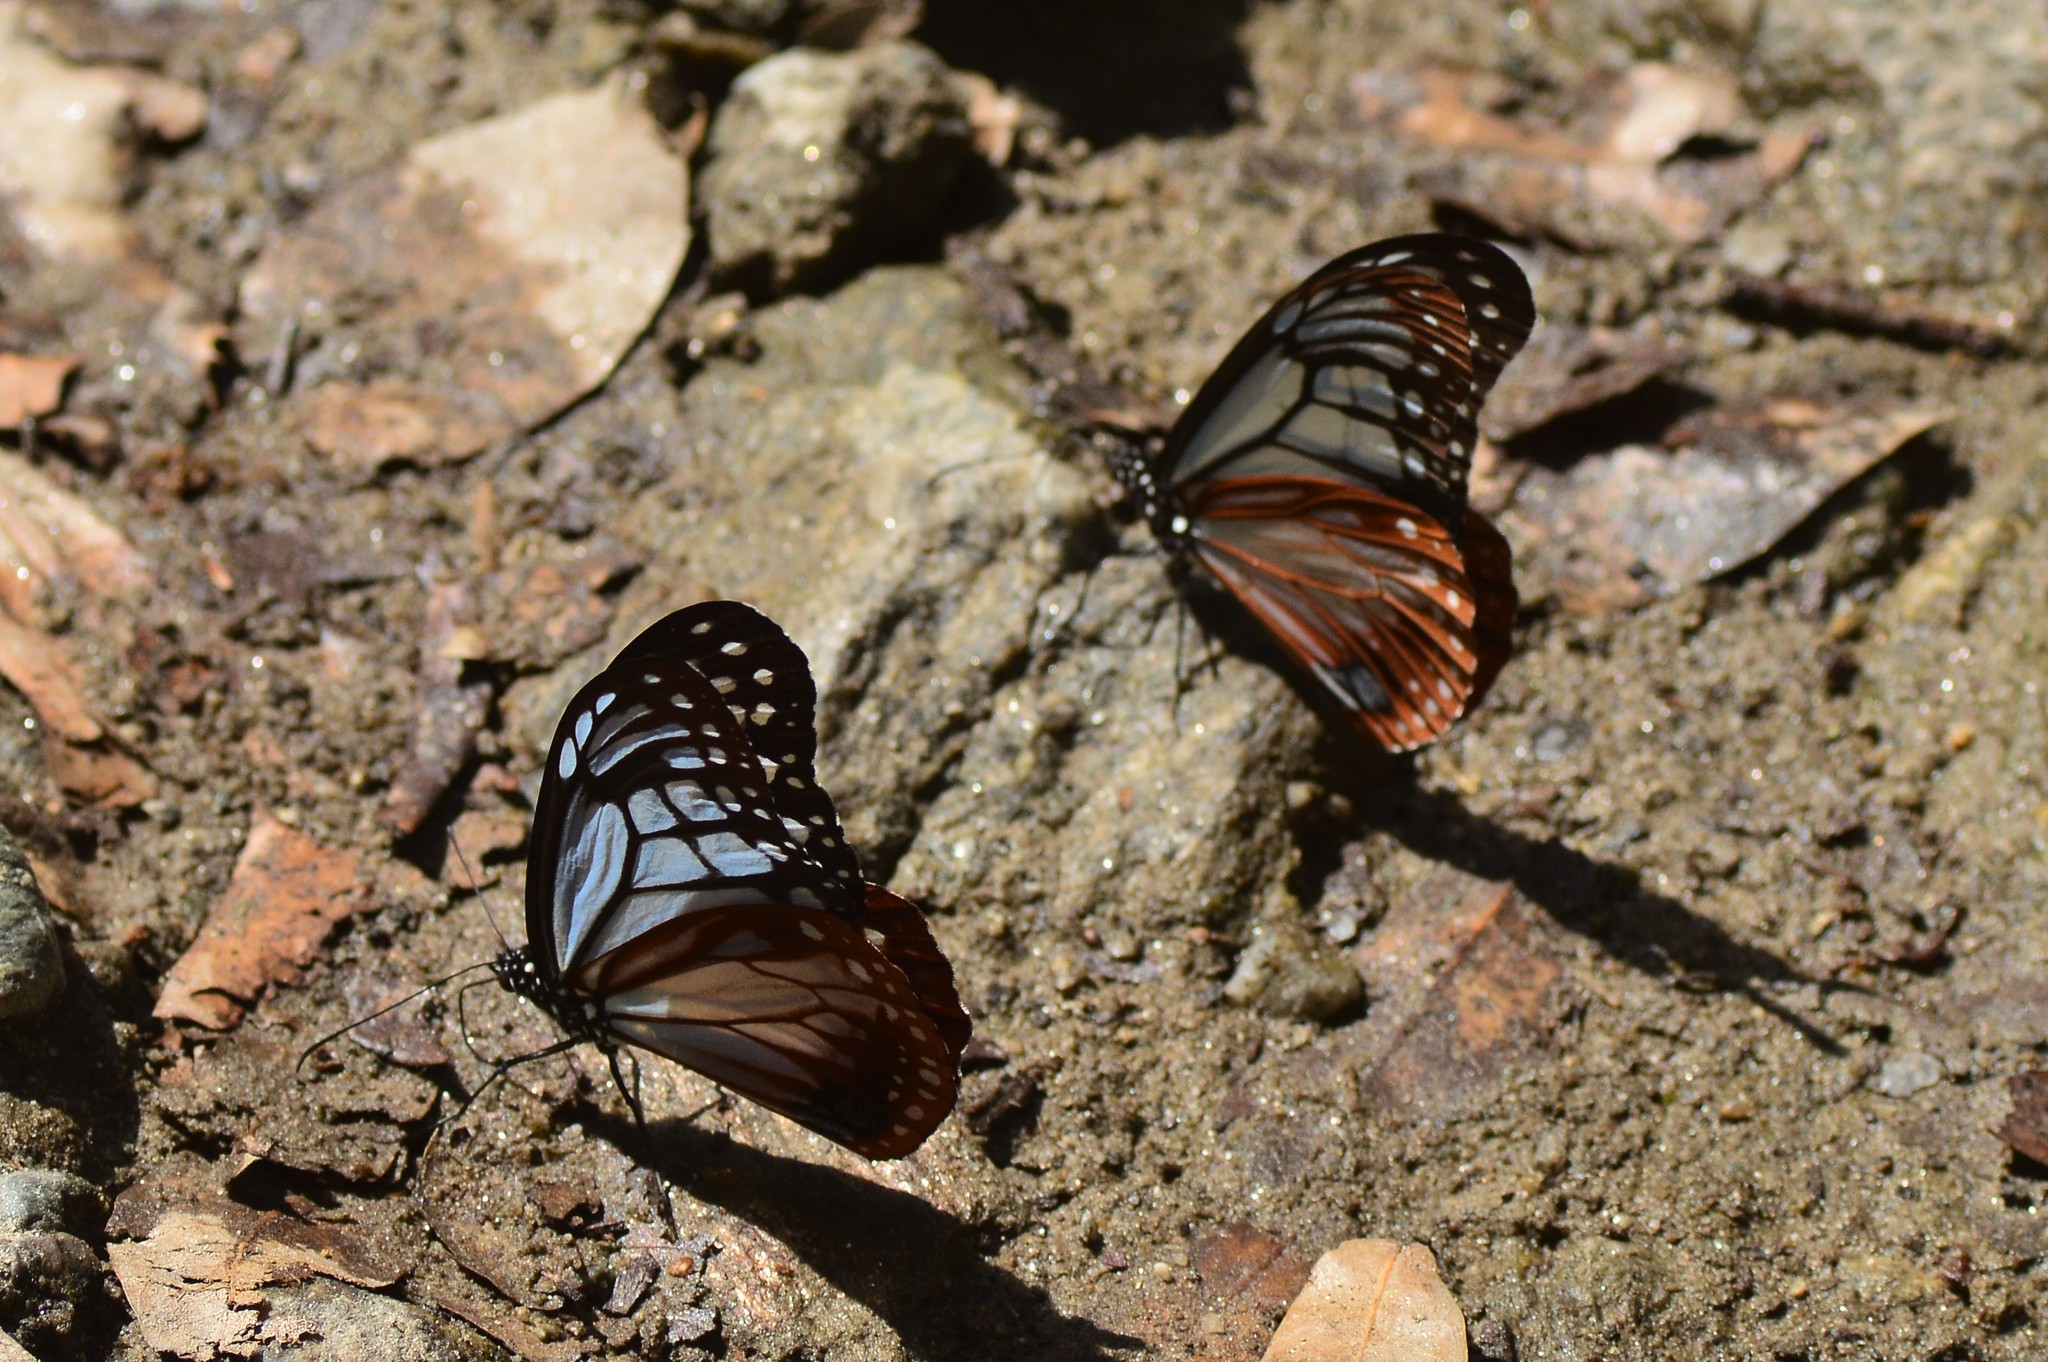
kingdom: Animalia
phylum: Arthropoda
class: Insecta
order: Lepidoptera
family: Nymphalidae
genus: Parantica
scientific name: Parantica sita
